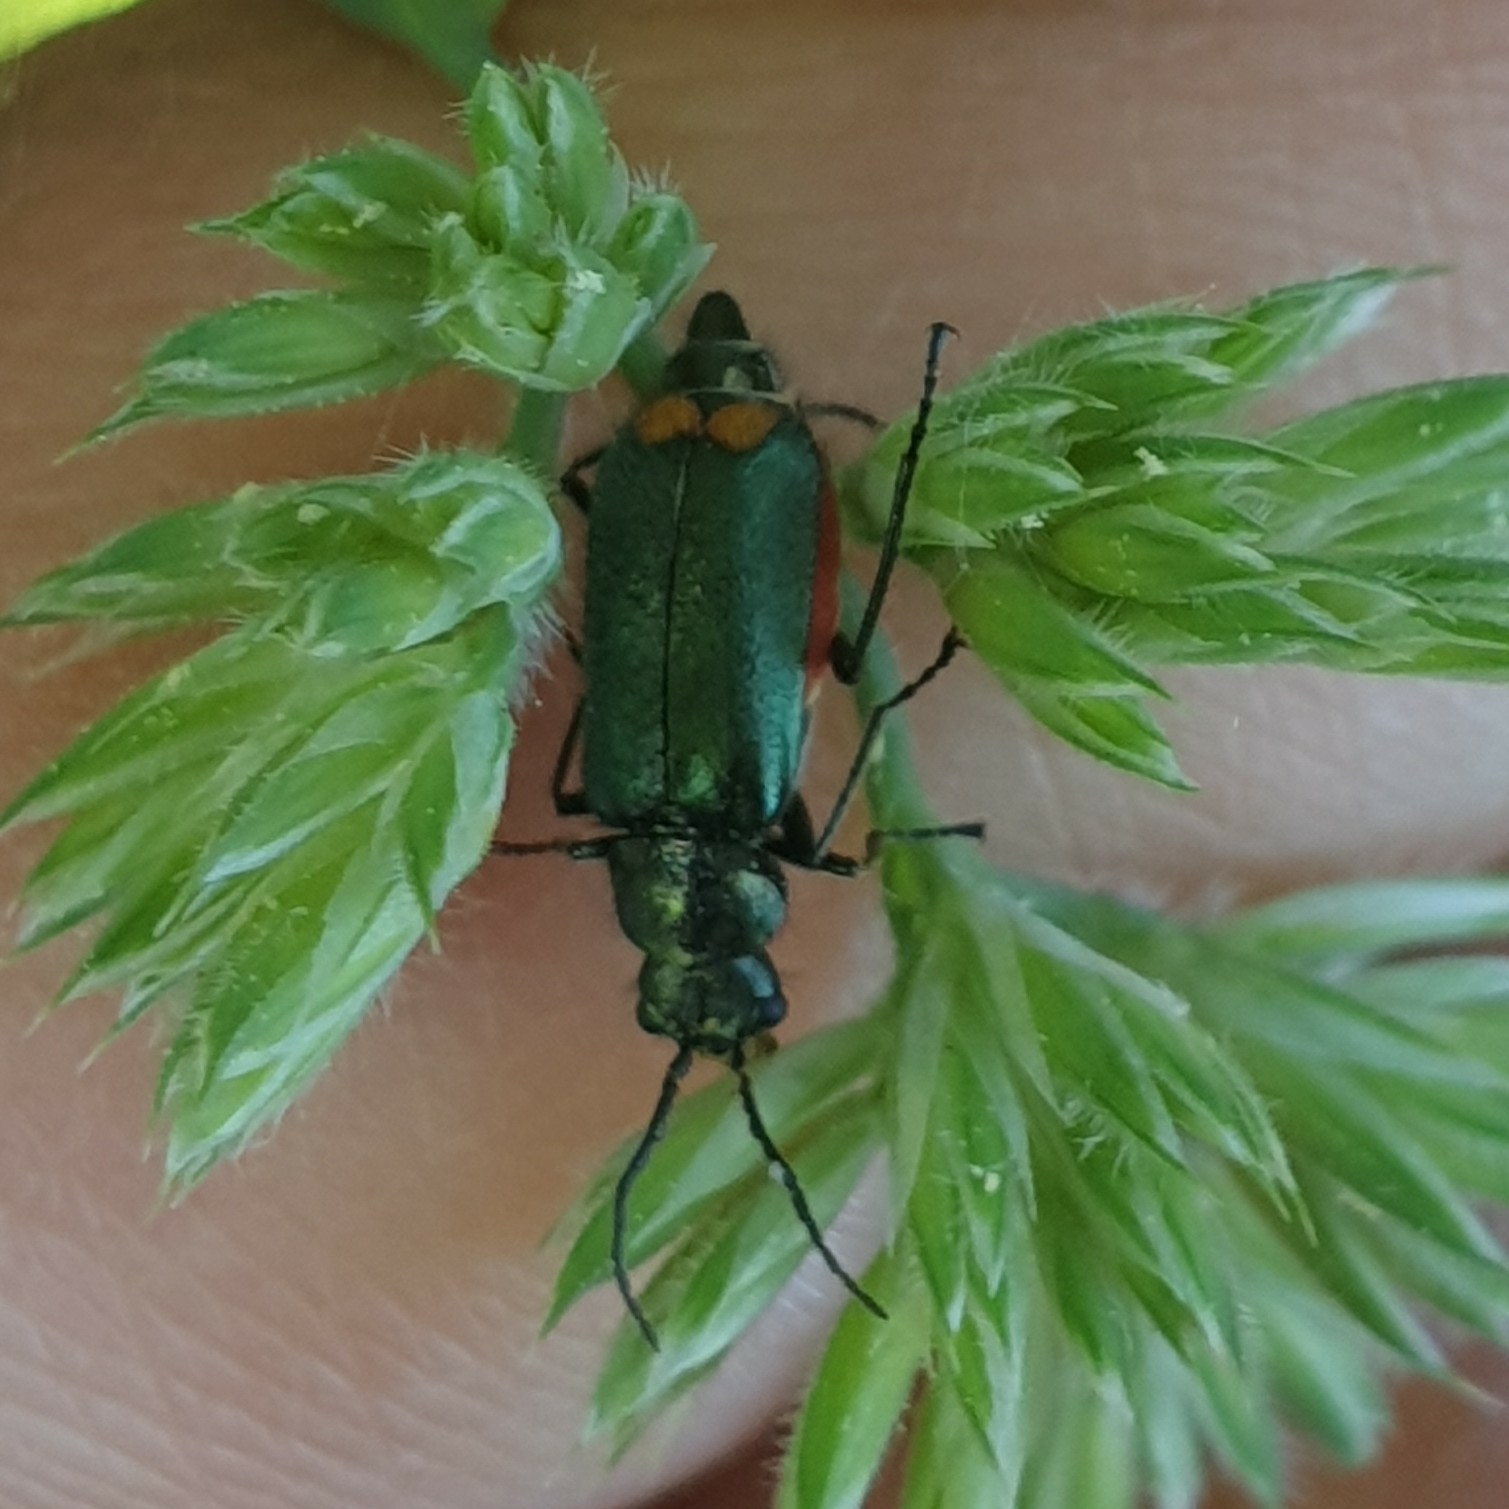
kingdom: Animalia
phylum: Arthropoda
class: Insecta
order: Coleoptera
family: Melyridae
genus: Malachius
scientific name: Malachius bipustulatus
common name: Malachite beetle
